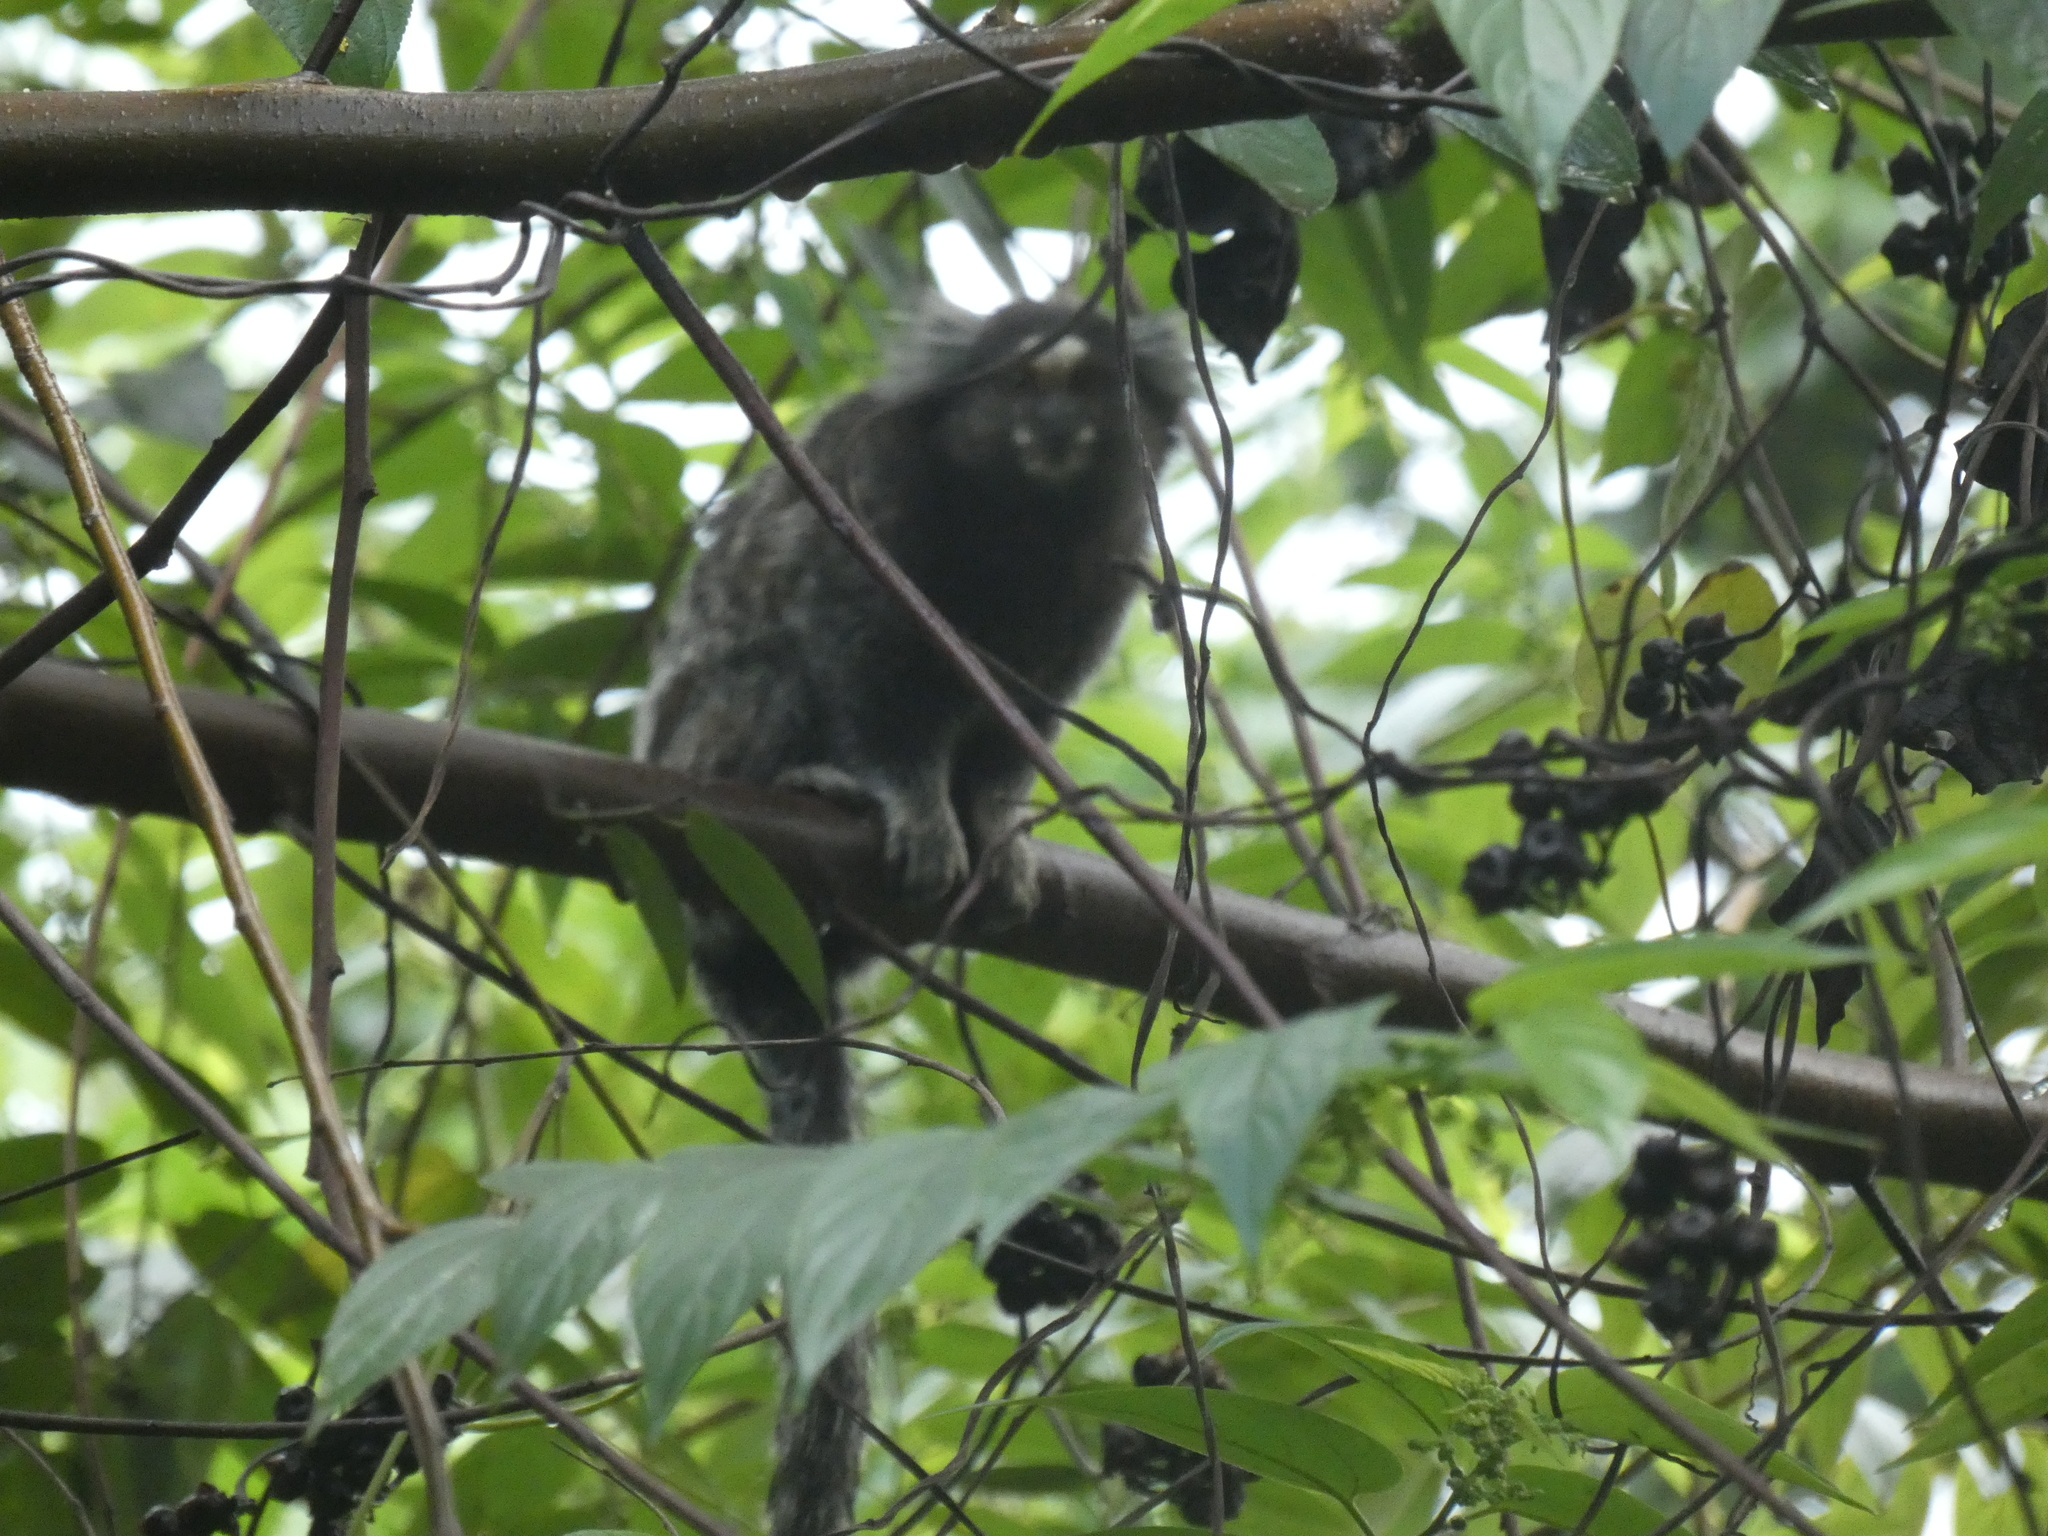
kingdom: Animalia
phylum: Chordata
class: Mammalia
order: Primates
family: Callitrichidae
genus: Callithrix
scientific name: Callithrix jacchus
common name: Common marmoset
